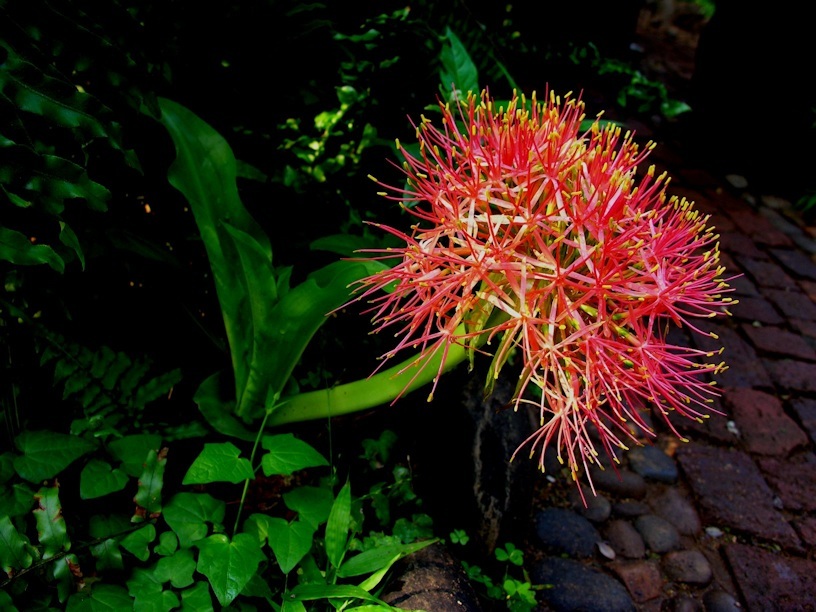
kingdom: Plantae
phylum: Tracheophyta
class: Liliopsida
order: Asparagales
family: Amaryllidaceae
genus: Scadoxus
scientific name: Scadoxus multiflorus
